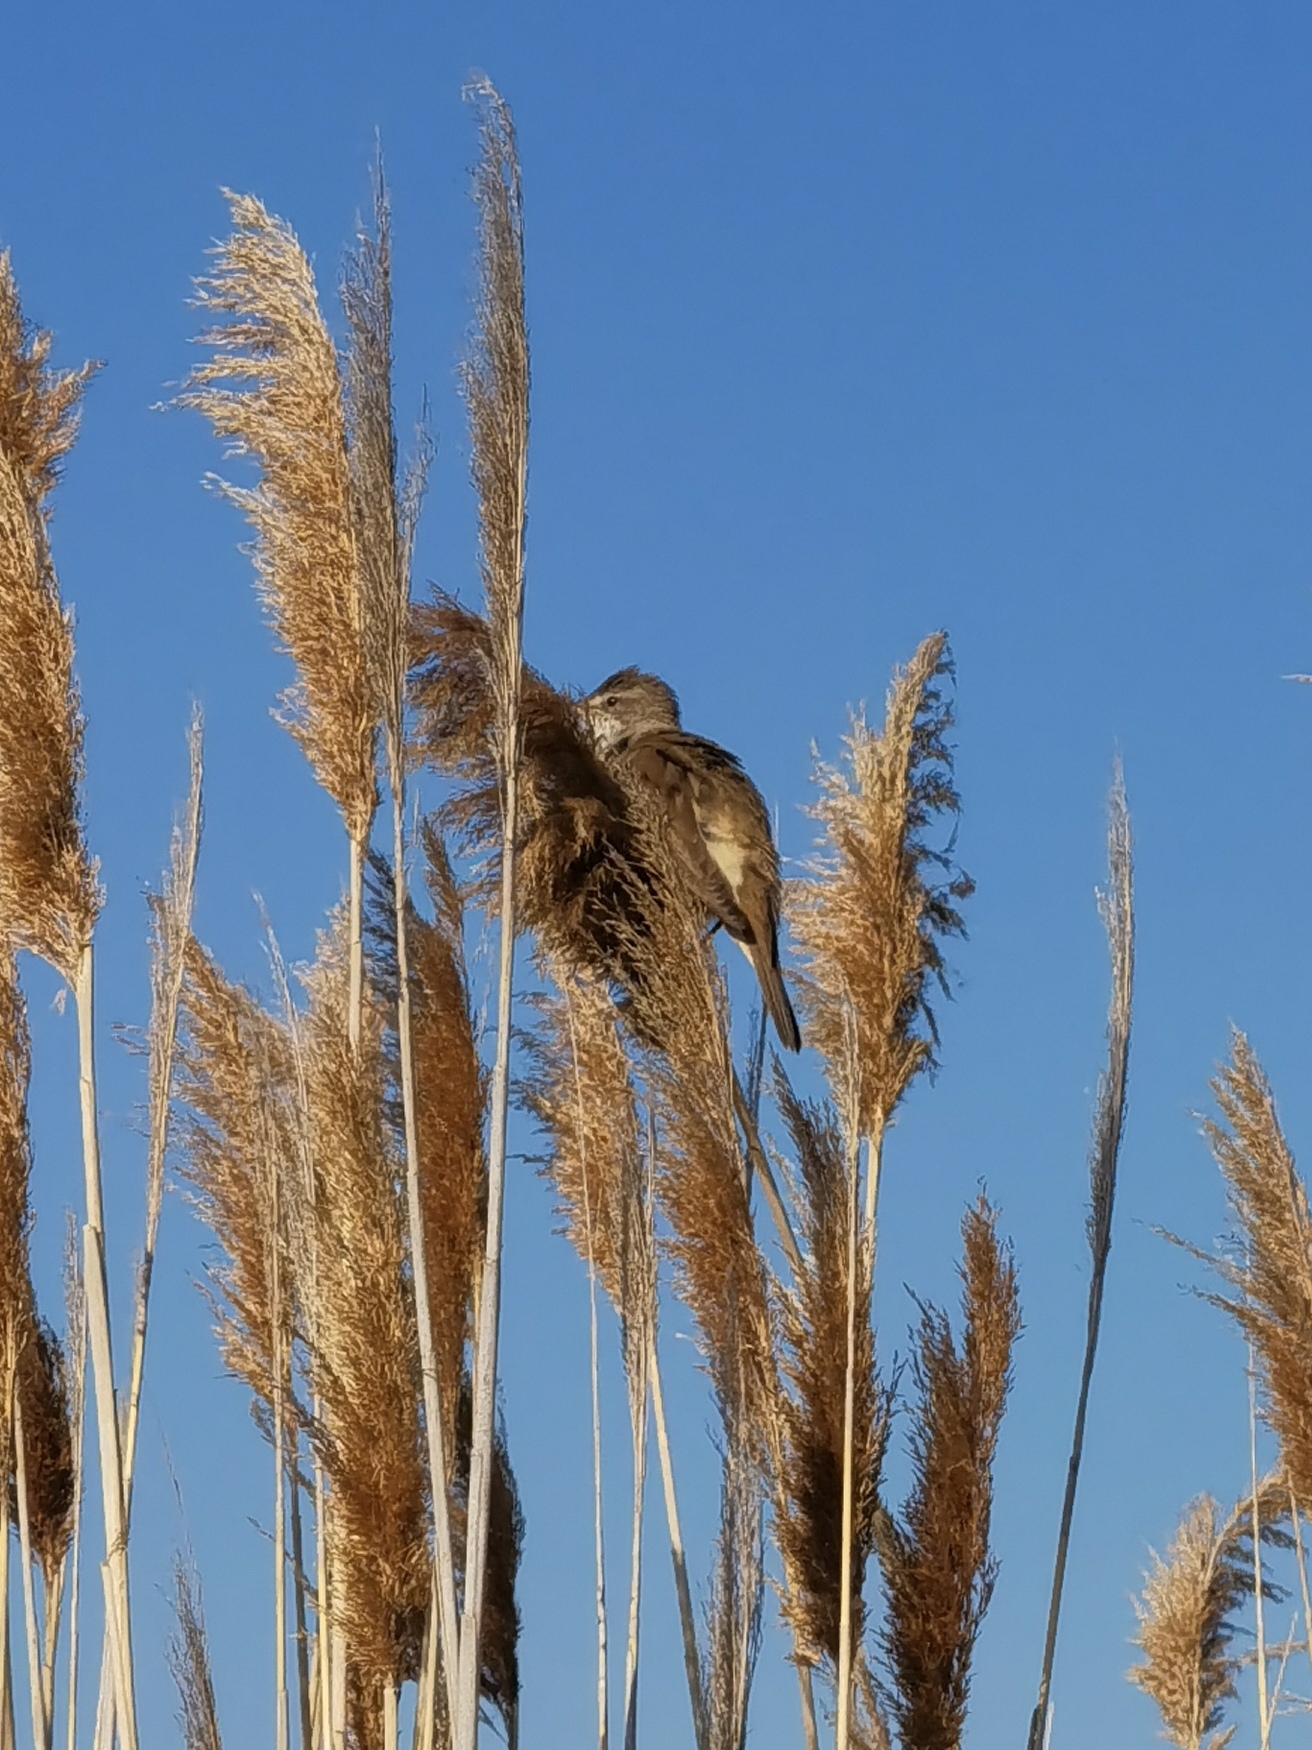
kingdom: Animalia
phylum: Chordata
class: Aves
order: Passeriformes
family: Acrocephalidae
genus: Acrocephalus
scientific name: Acrocephalus arundinaceus
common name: Great reed warbler
